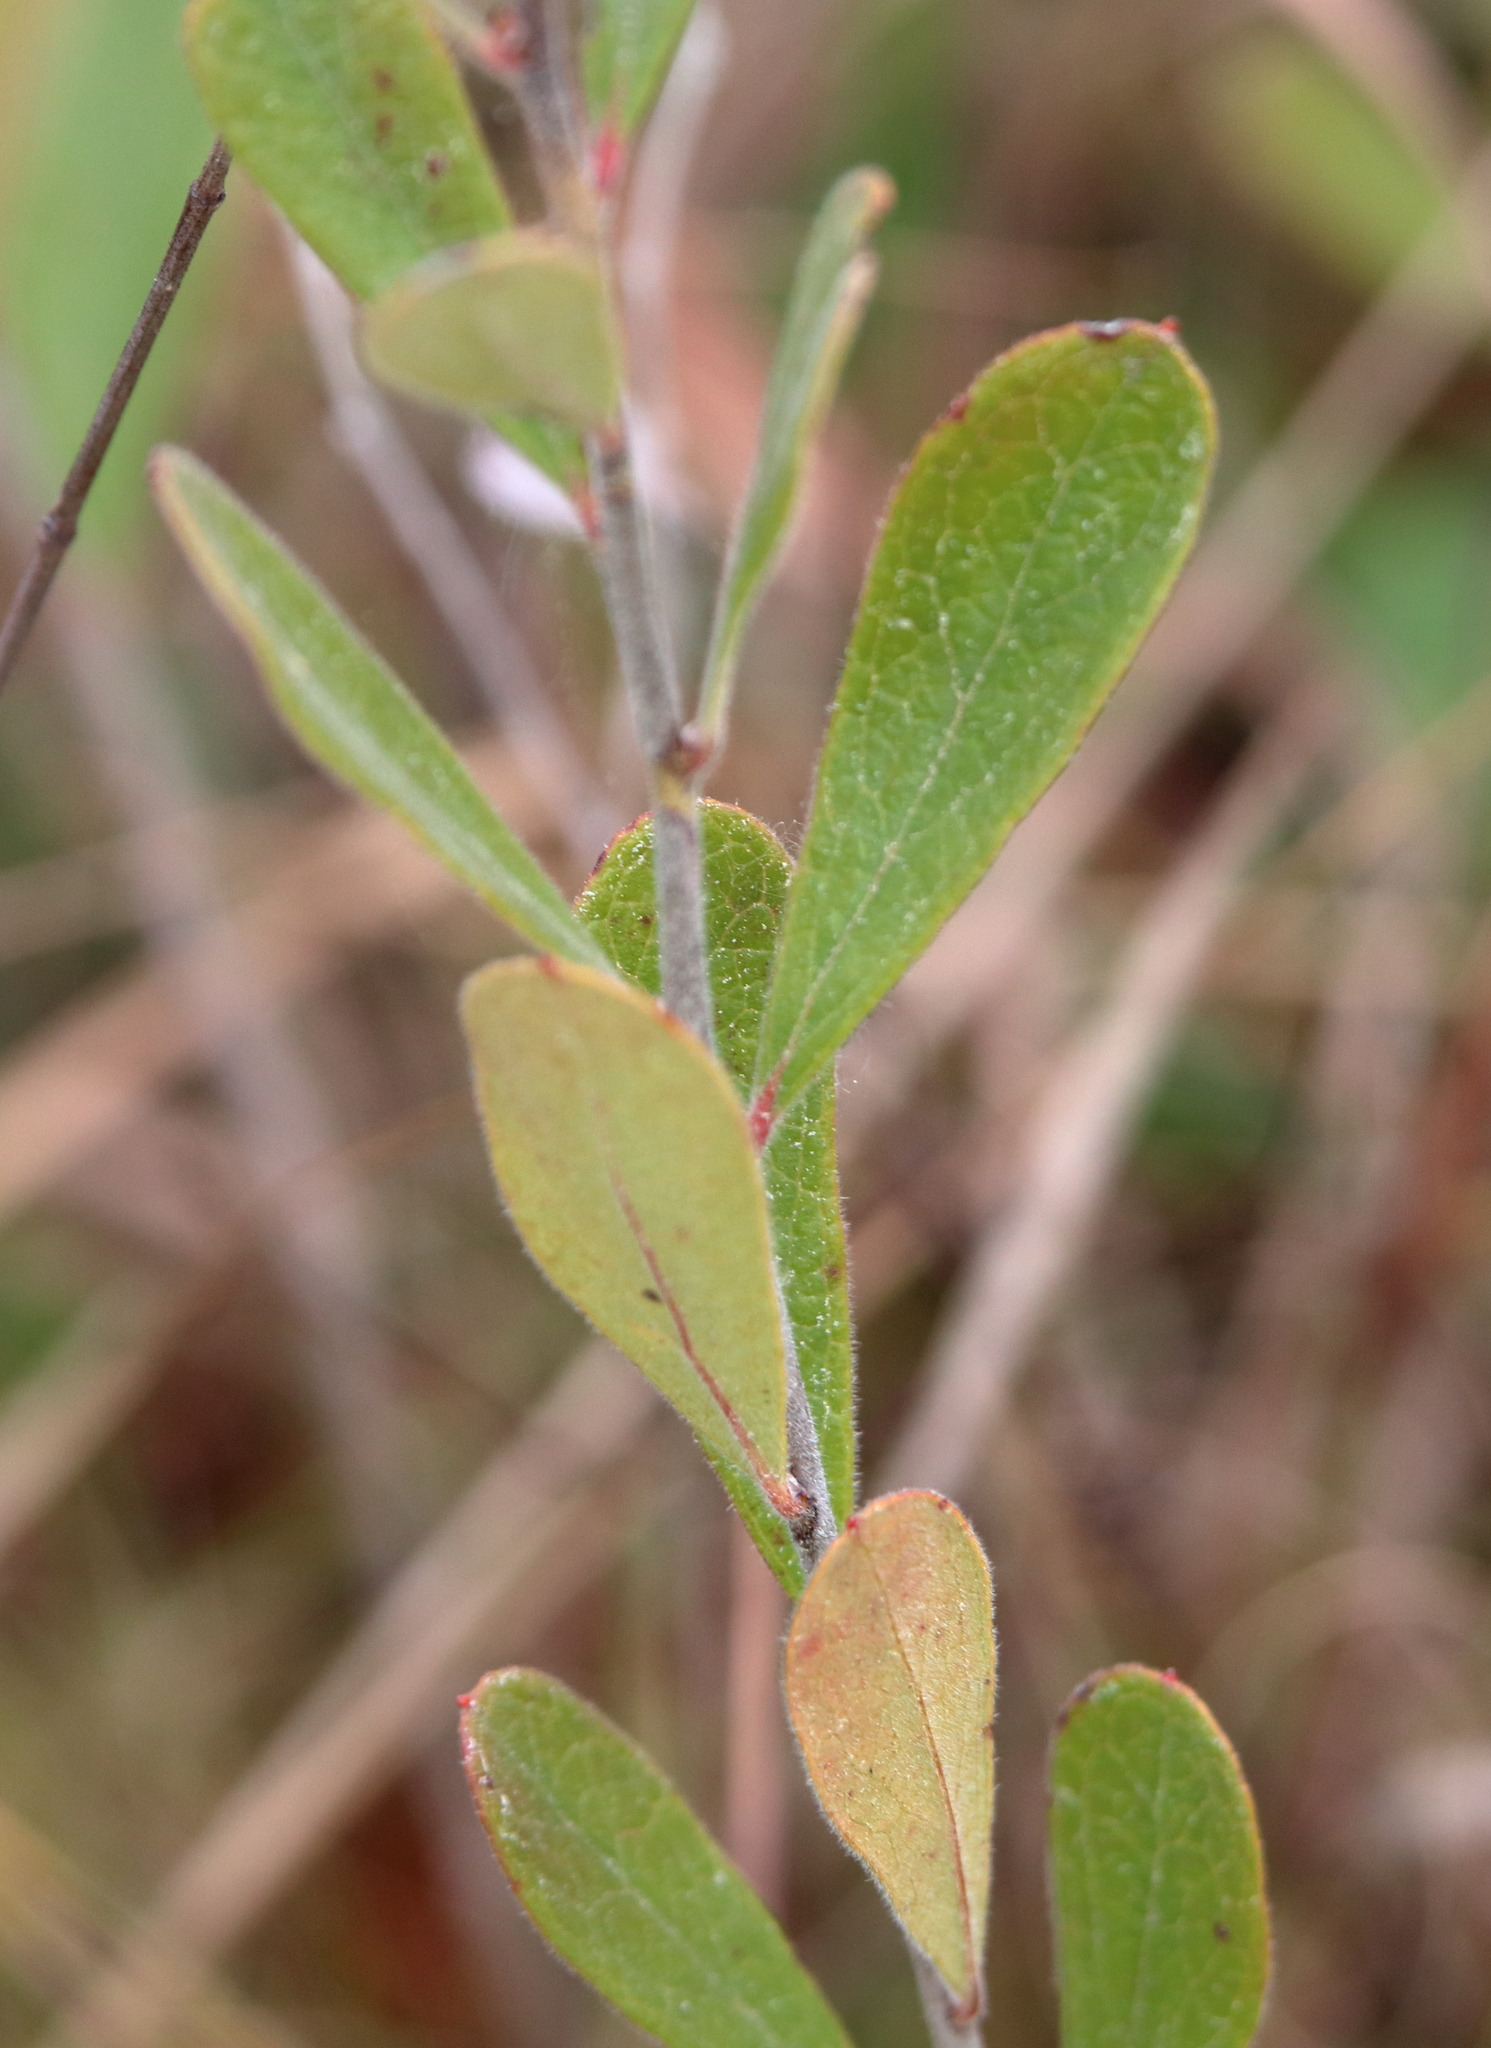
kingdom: Plantae
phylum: Tracheophyta
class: Magnoliopsida
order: Ericales
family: Ericaceae
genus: Gaylussacia
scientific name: Gaylussacia mosieri
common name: Hirsute huckleberry
